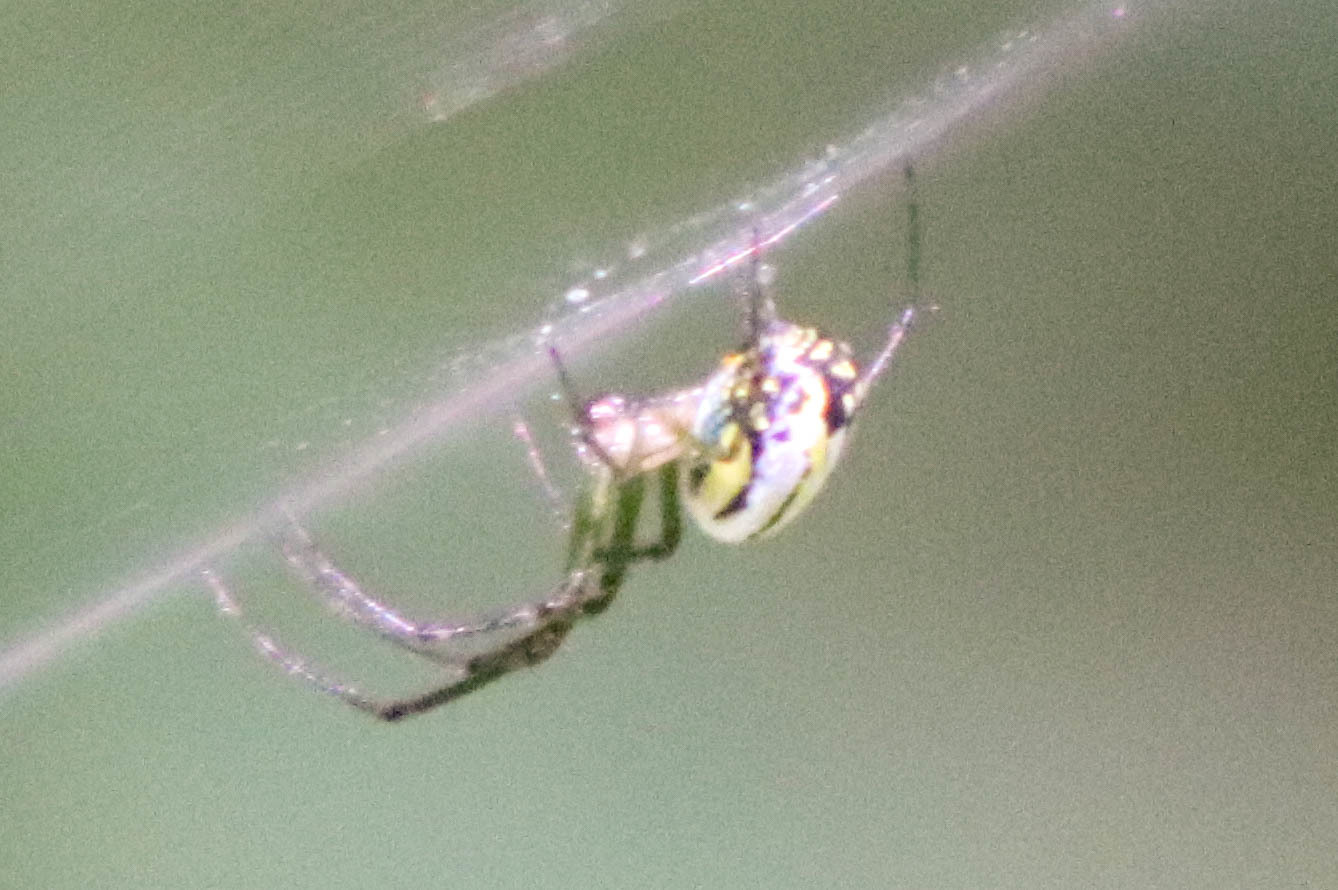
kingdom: Animalia
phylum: Arthropoda
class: Arachnida
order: Araneae
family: Tetragnathidae
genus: Leucauge
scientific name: Leucauge venusta
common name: Longjawed orb weavers
